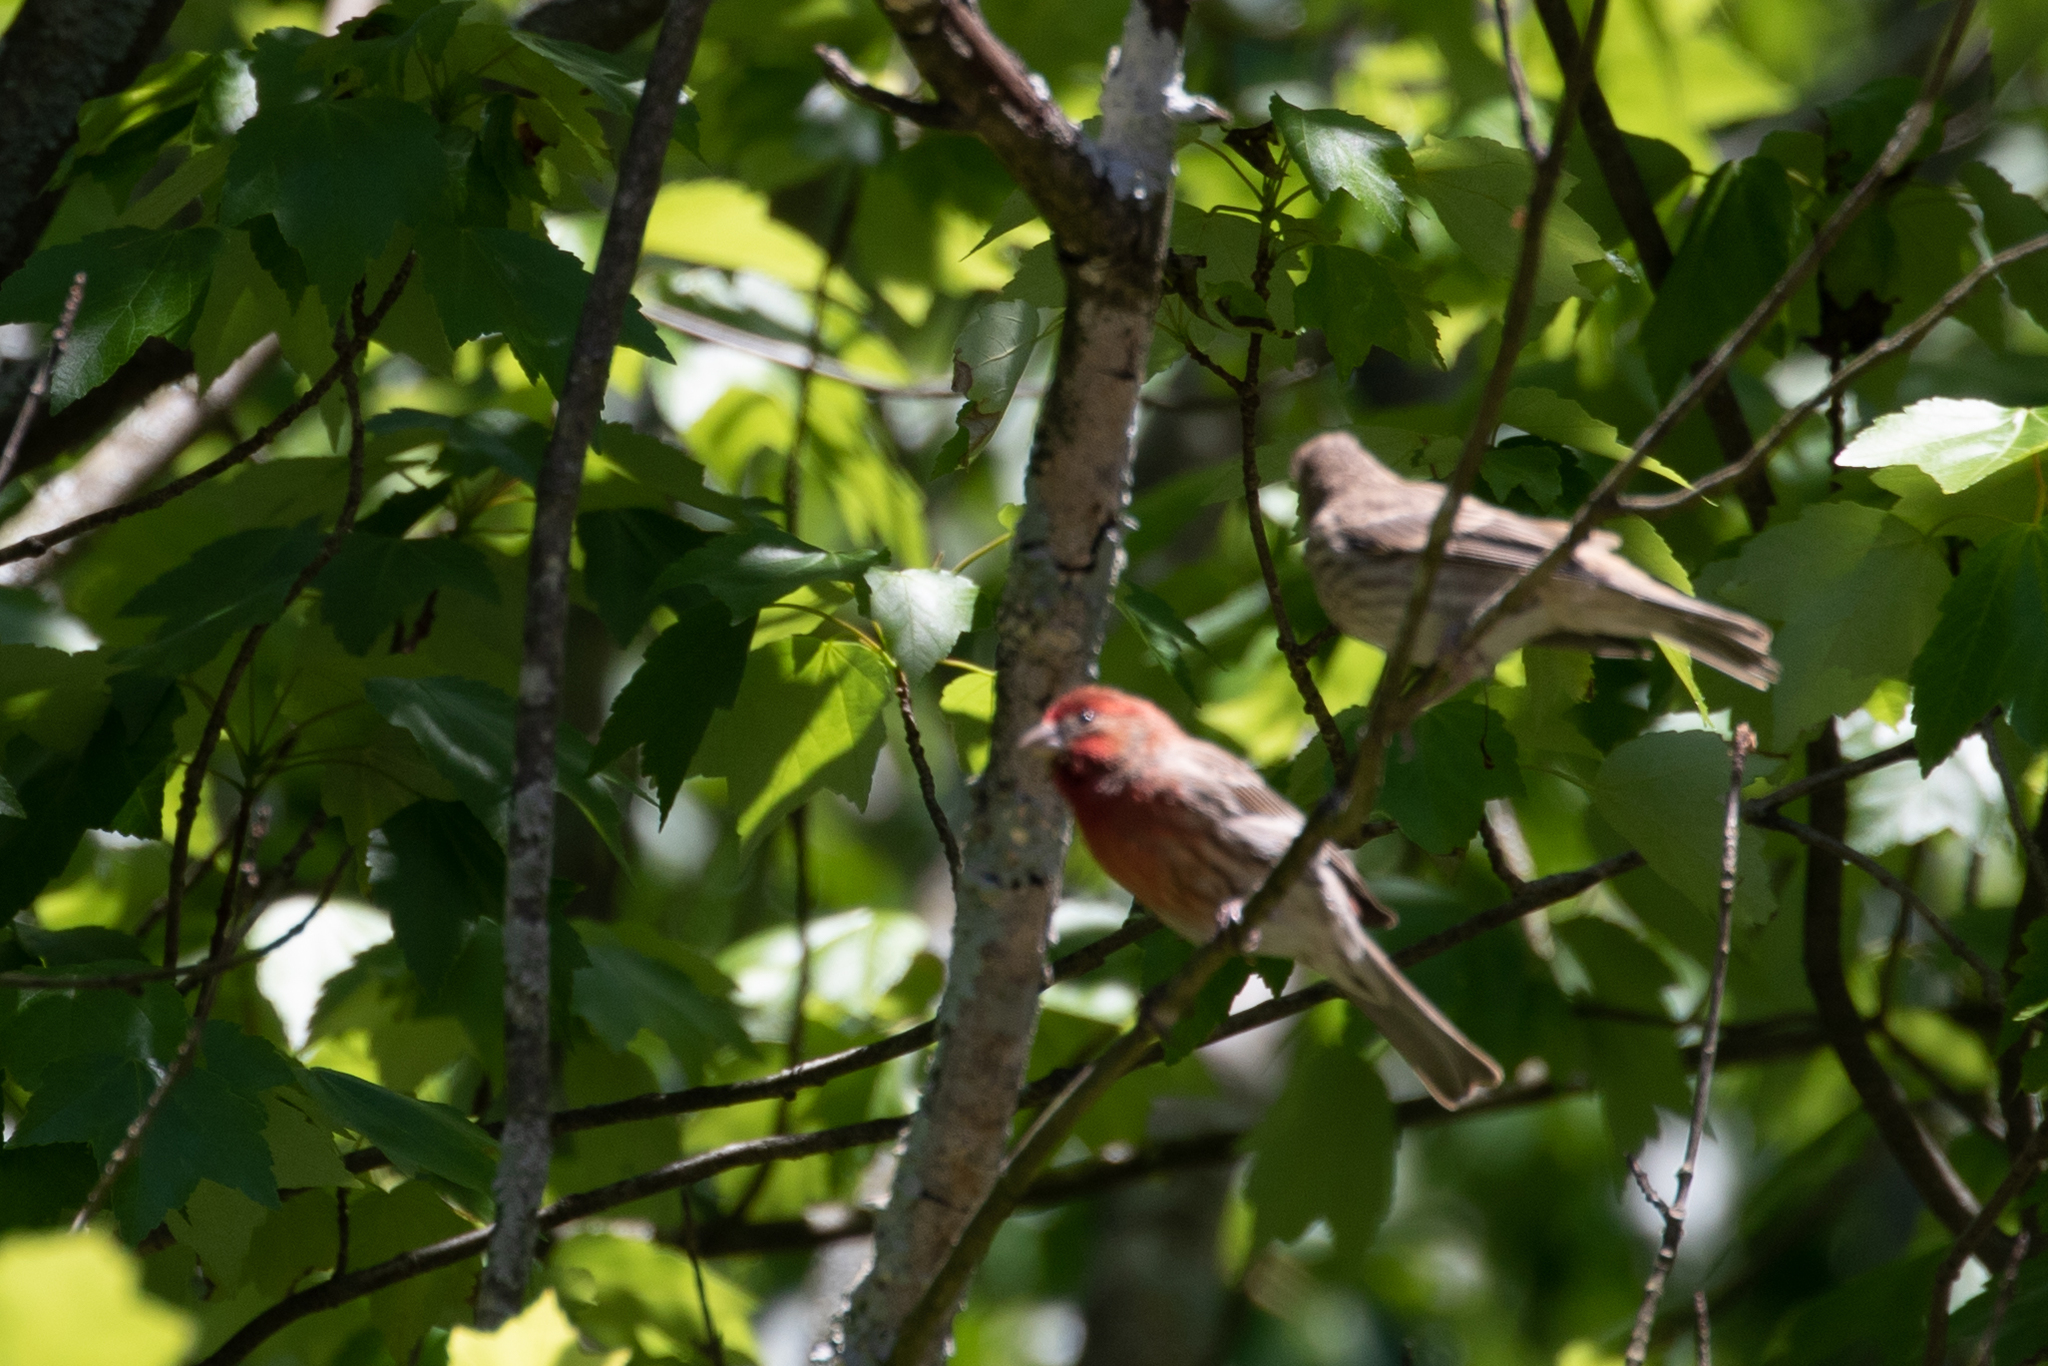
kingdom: Animalia
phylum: Chordata
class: Aves
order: Passeriformes
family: Fringillidae
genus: Haemorhous
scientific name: Haemorhous mexicanus
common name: House finch
